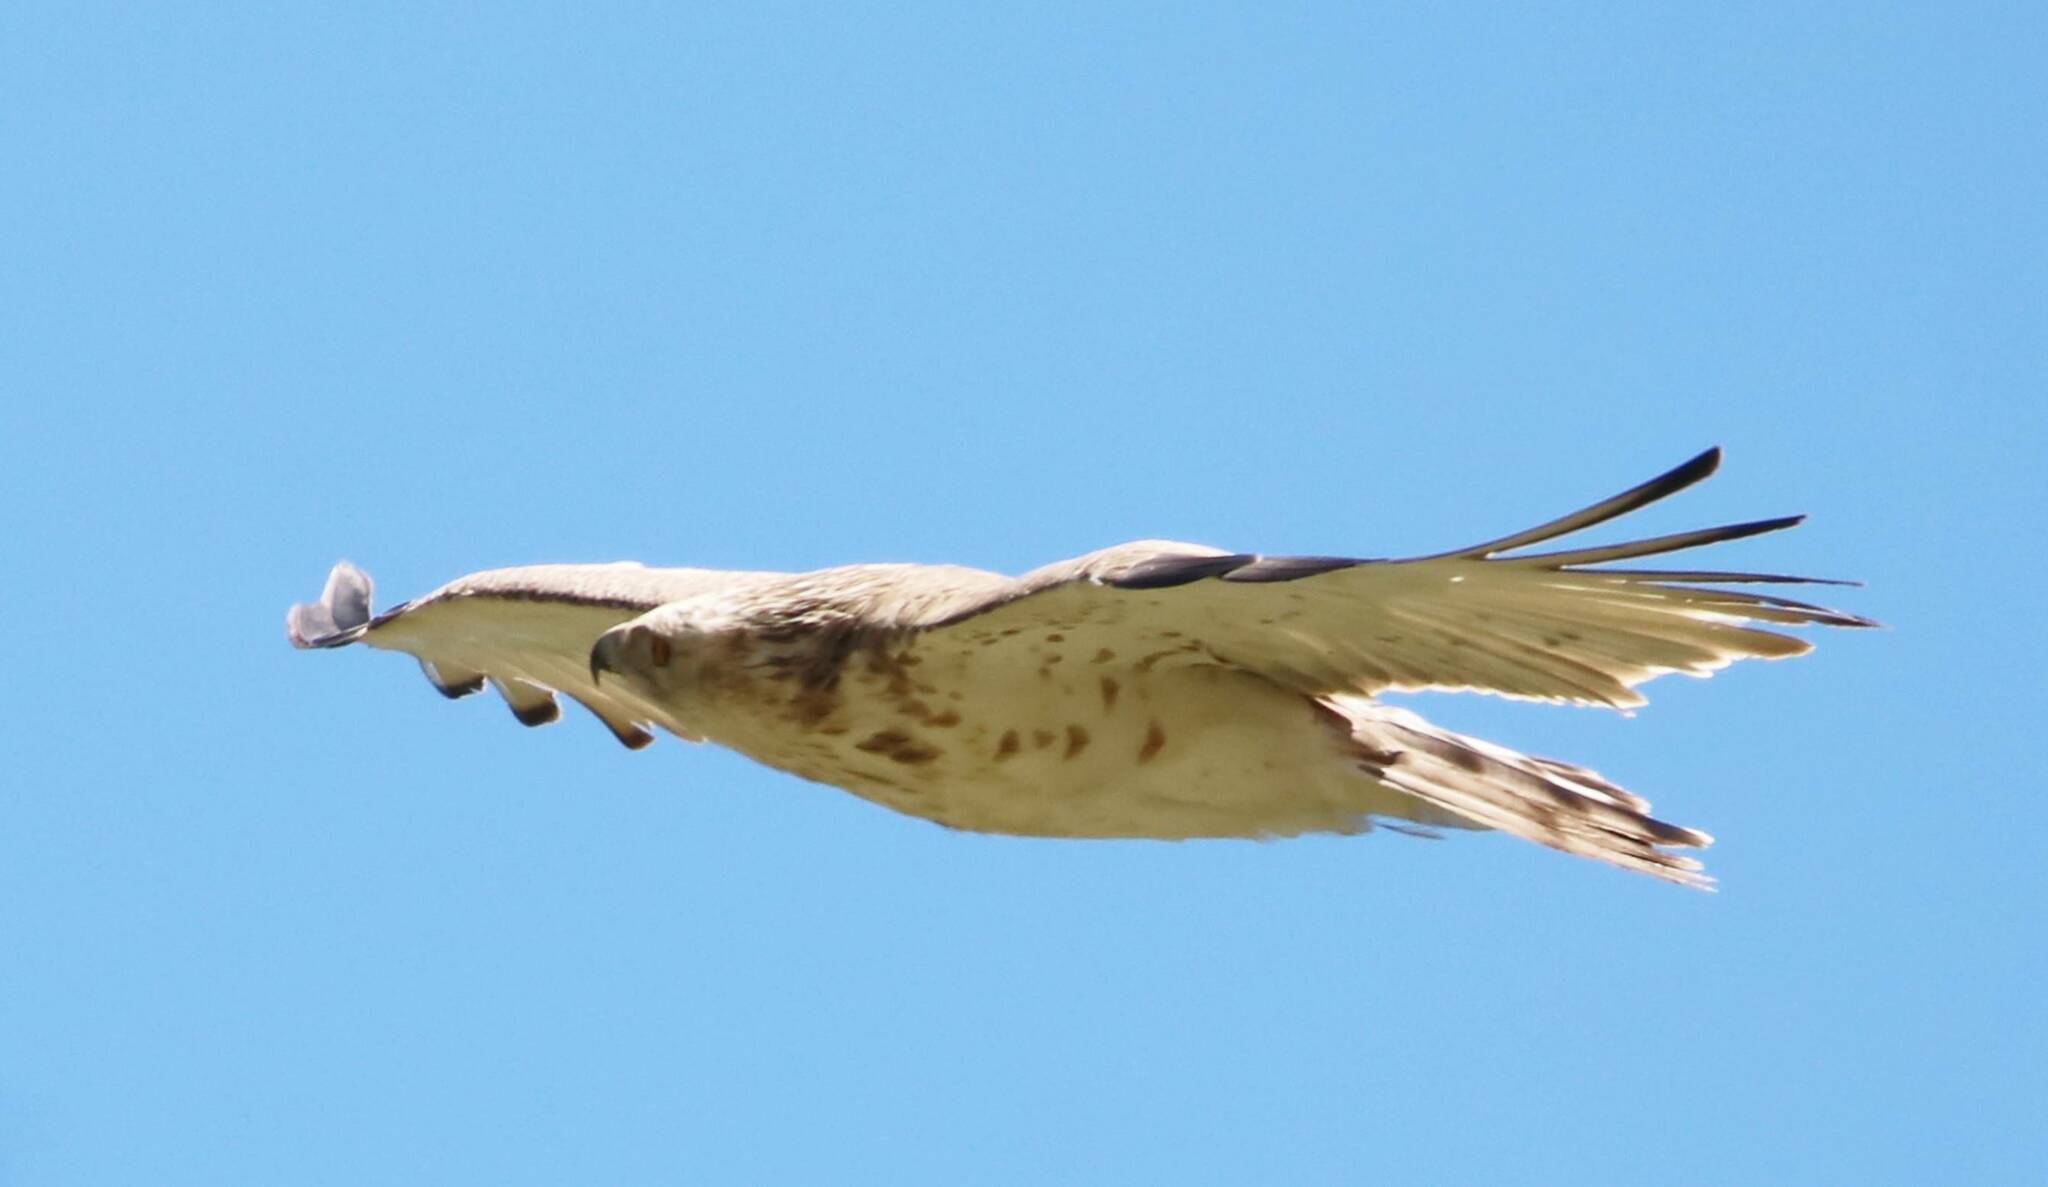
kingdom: Animalia
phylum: Chordata
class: Aves
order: Accipitriformes
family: Accipitridae
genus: Circaetus
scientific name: Circaetus gallicus
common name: Short-toed snake eagle
